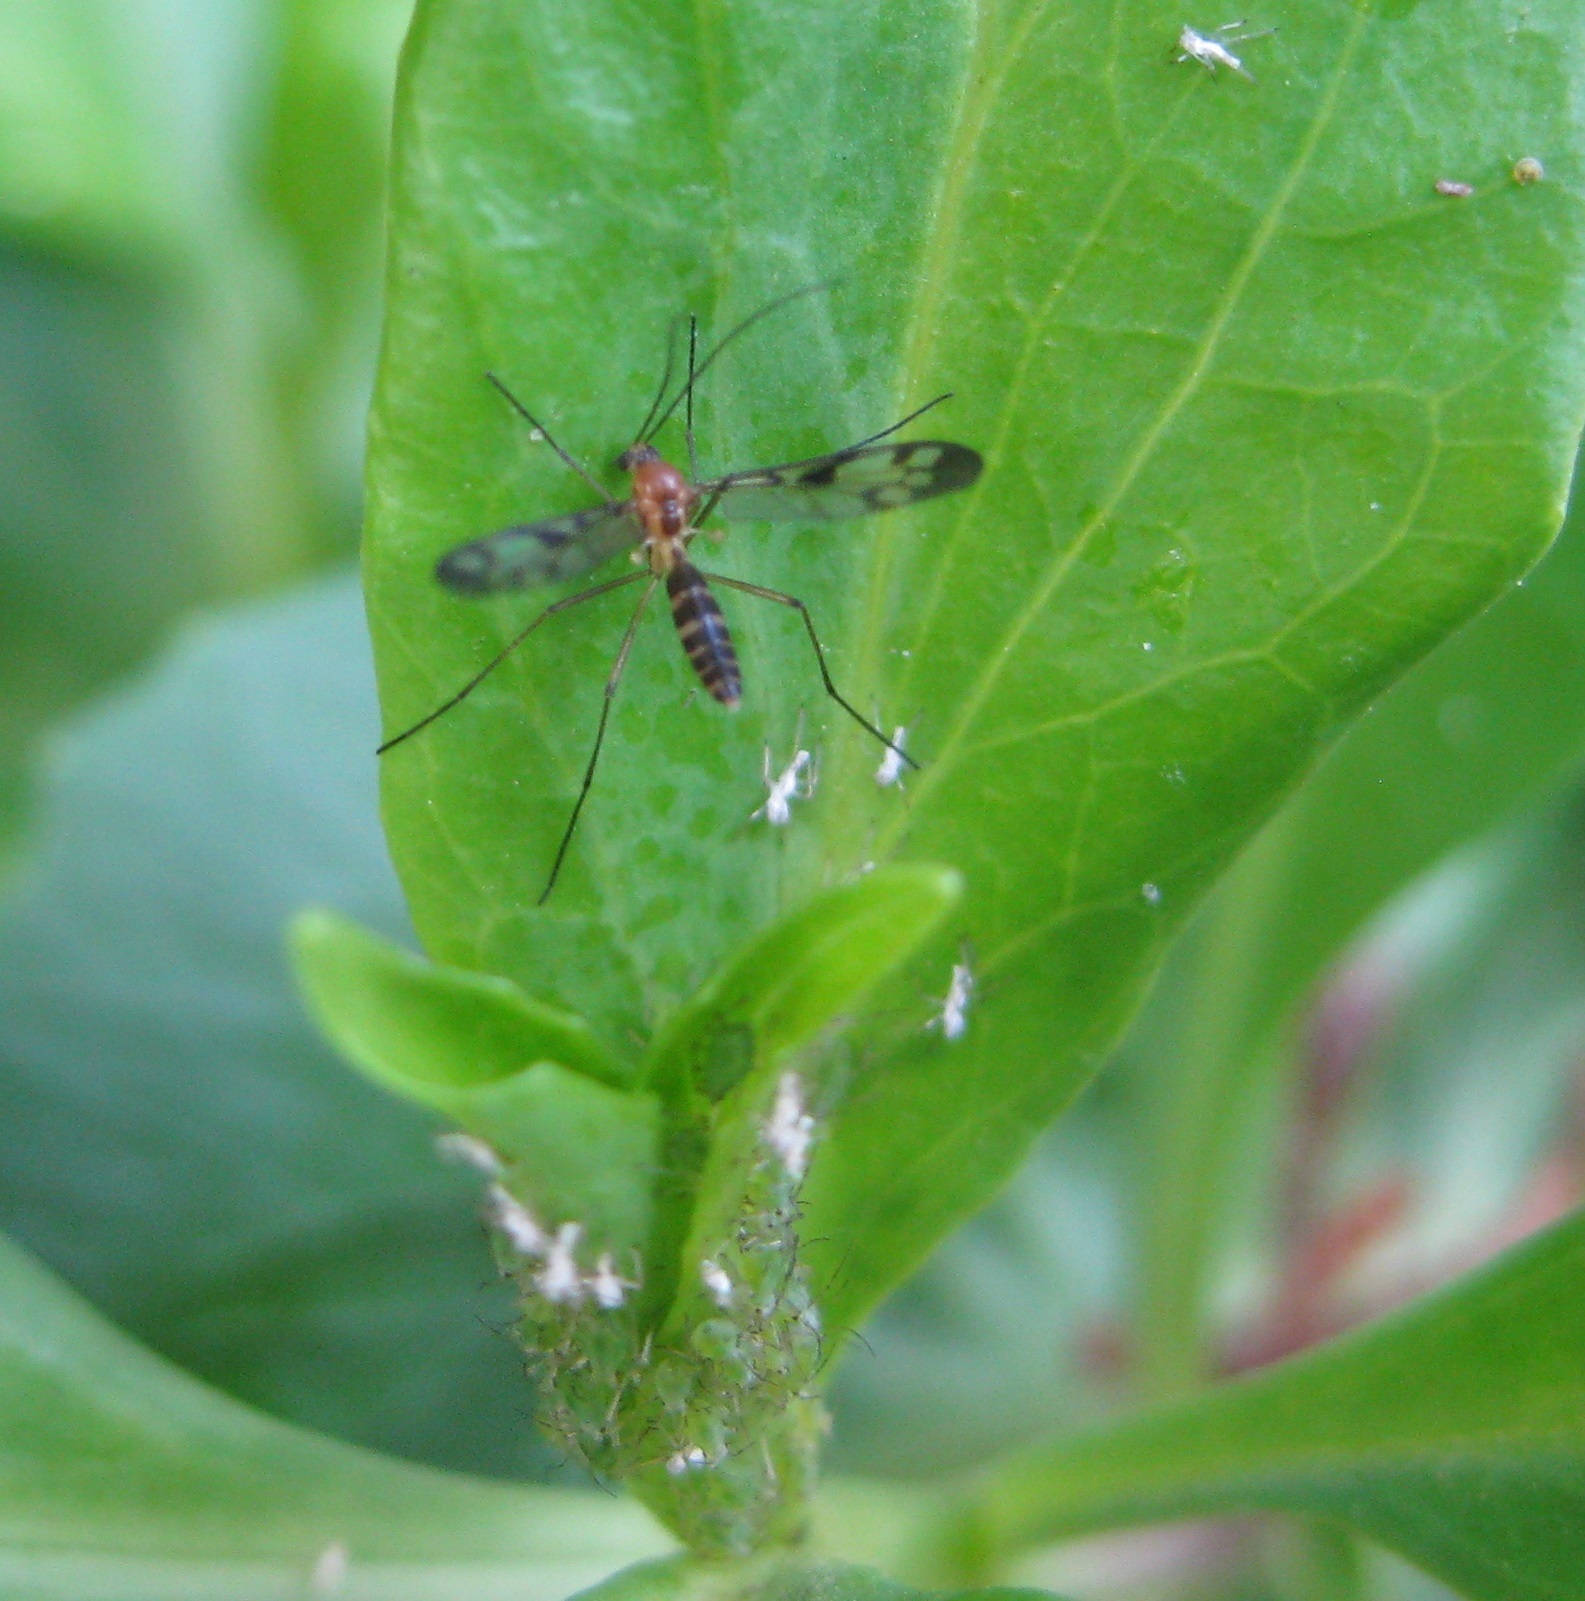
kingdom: Animalia
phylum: Arthropoda
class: Insecta
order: Diptera
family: Keroplatidae
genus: Chiasmoneura
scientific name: Chiasmoneura fenestrata
